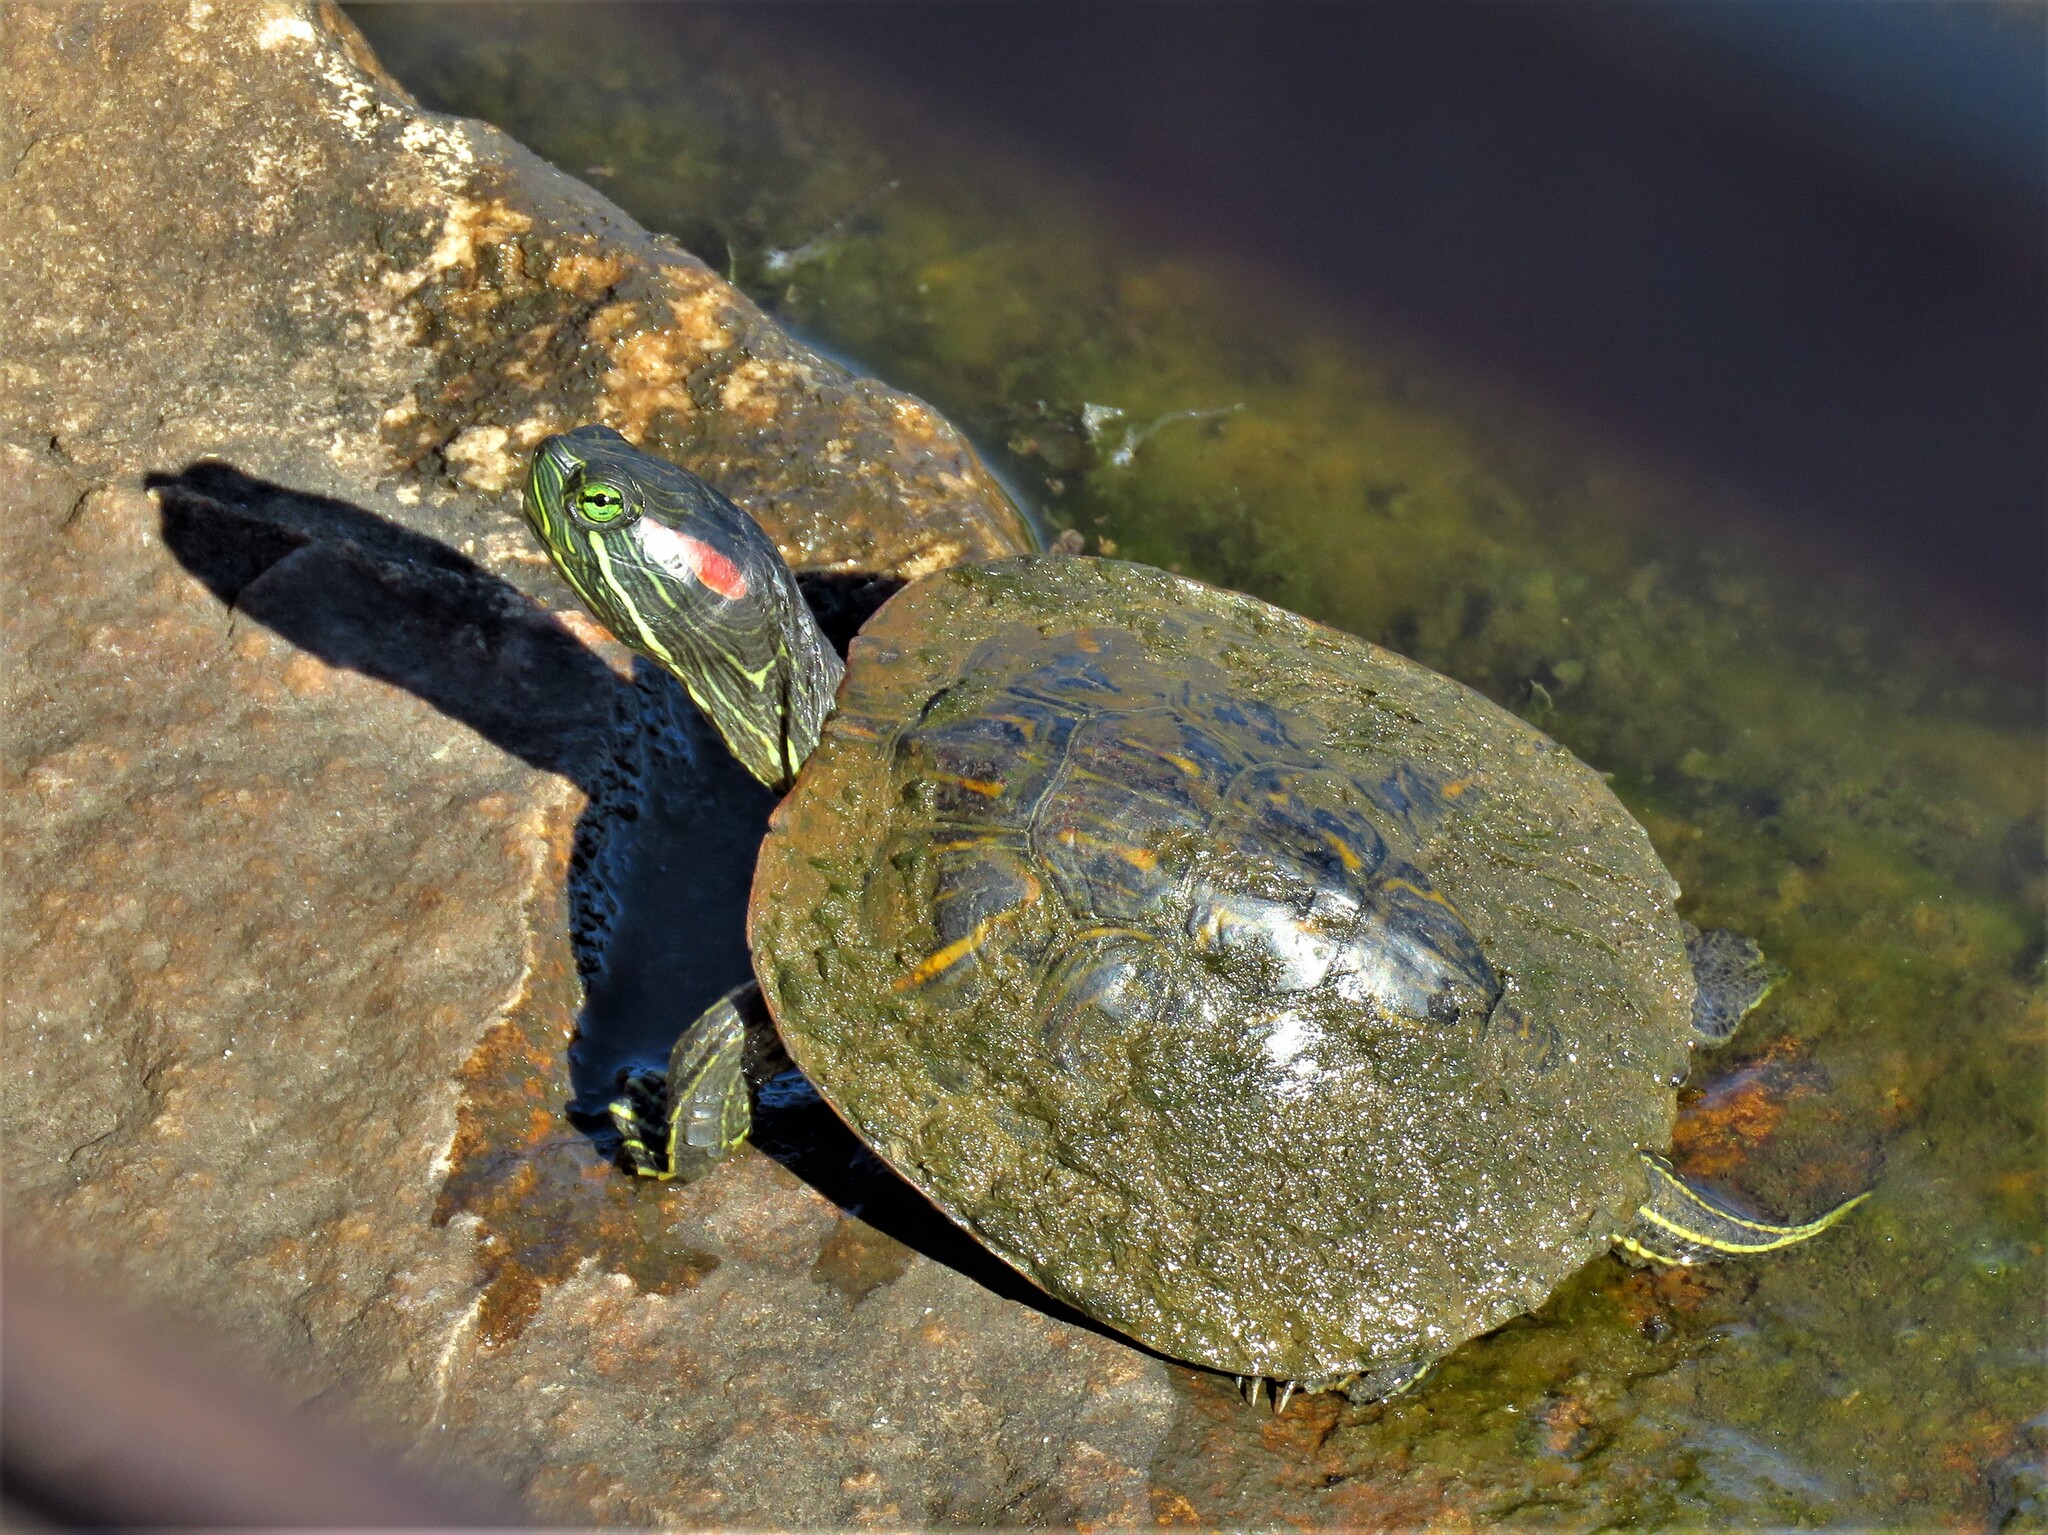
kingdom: Animalia
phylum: Chordata
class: Testudines
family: Emydidae
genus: Trachemys
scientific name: Trachemys scripta
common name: Slider
